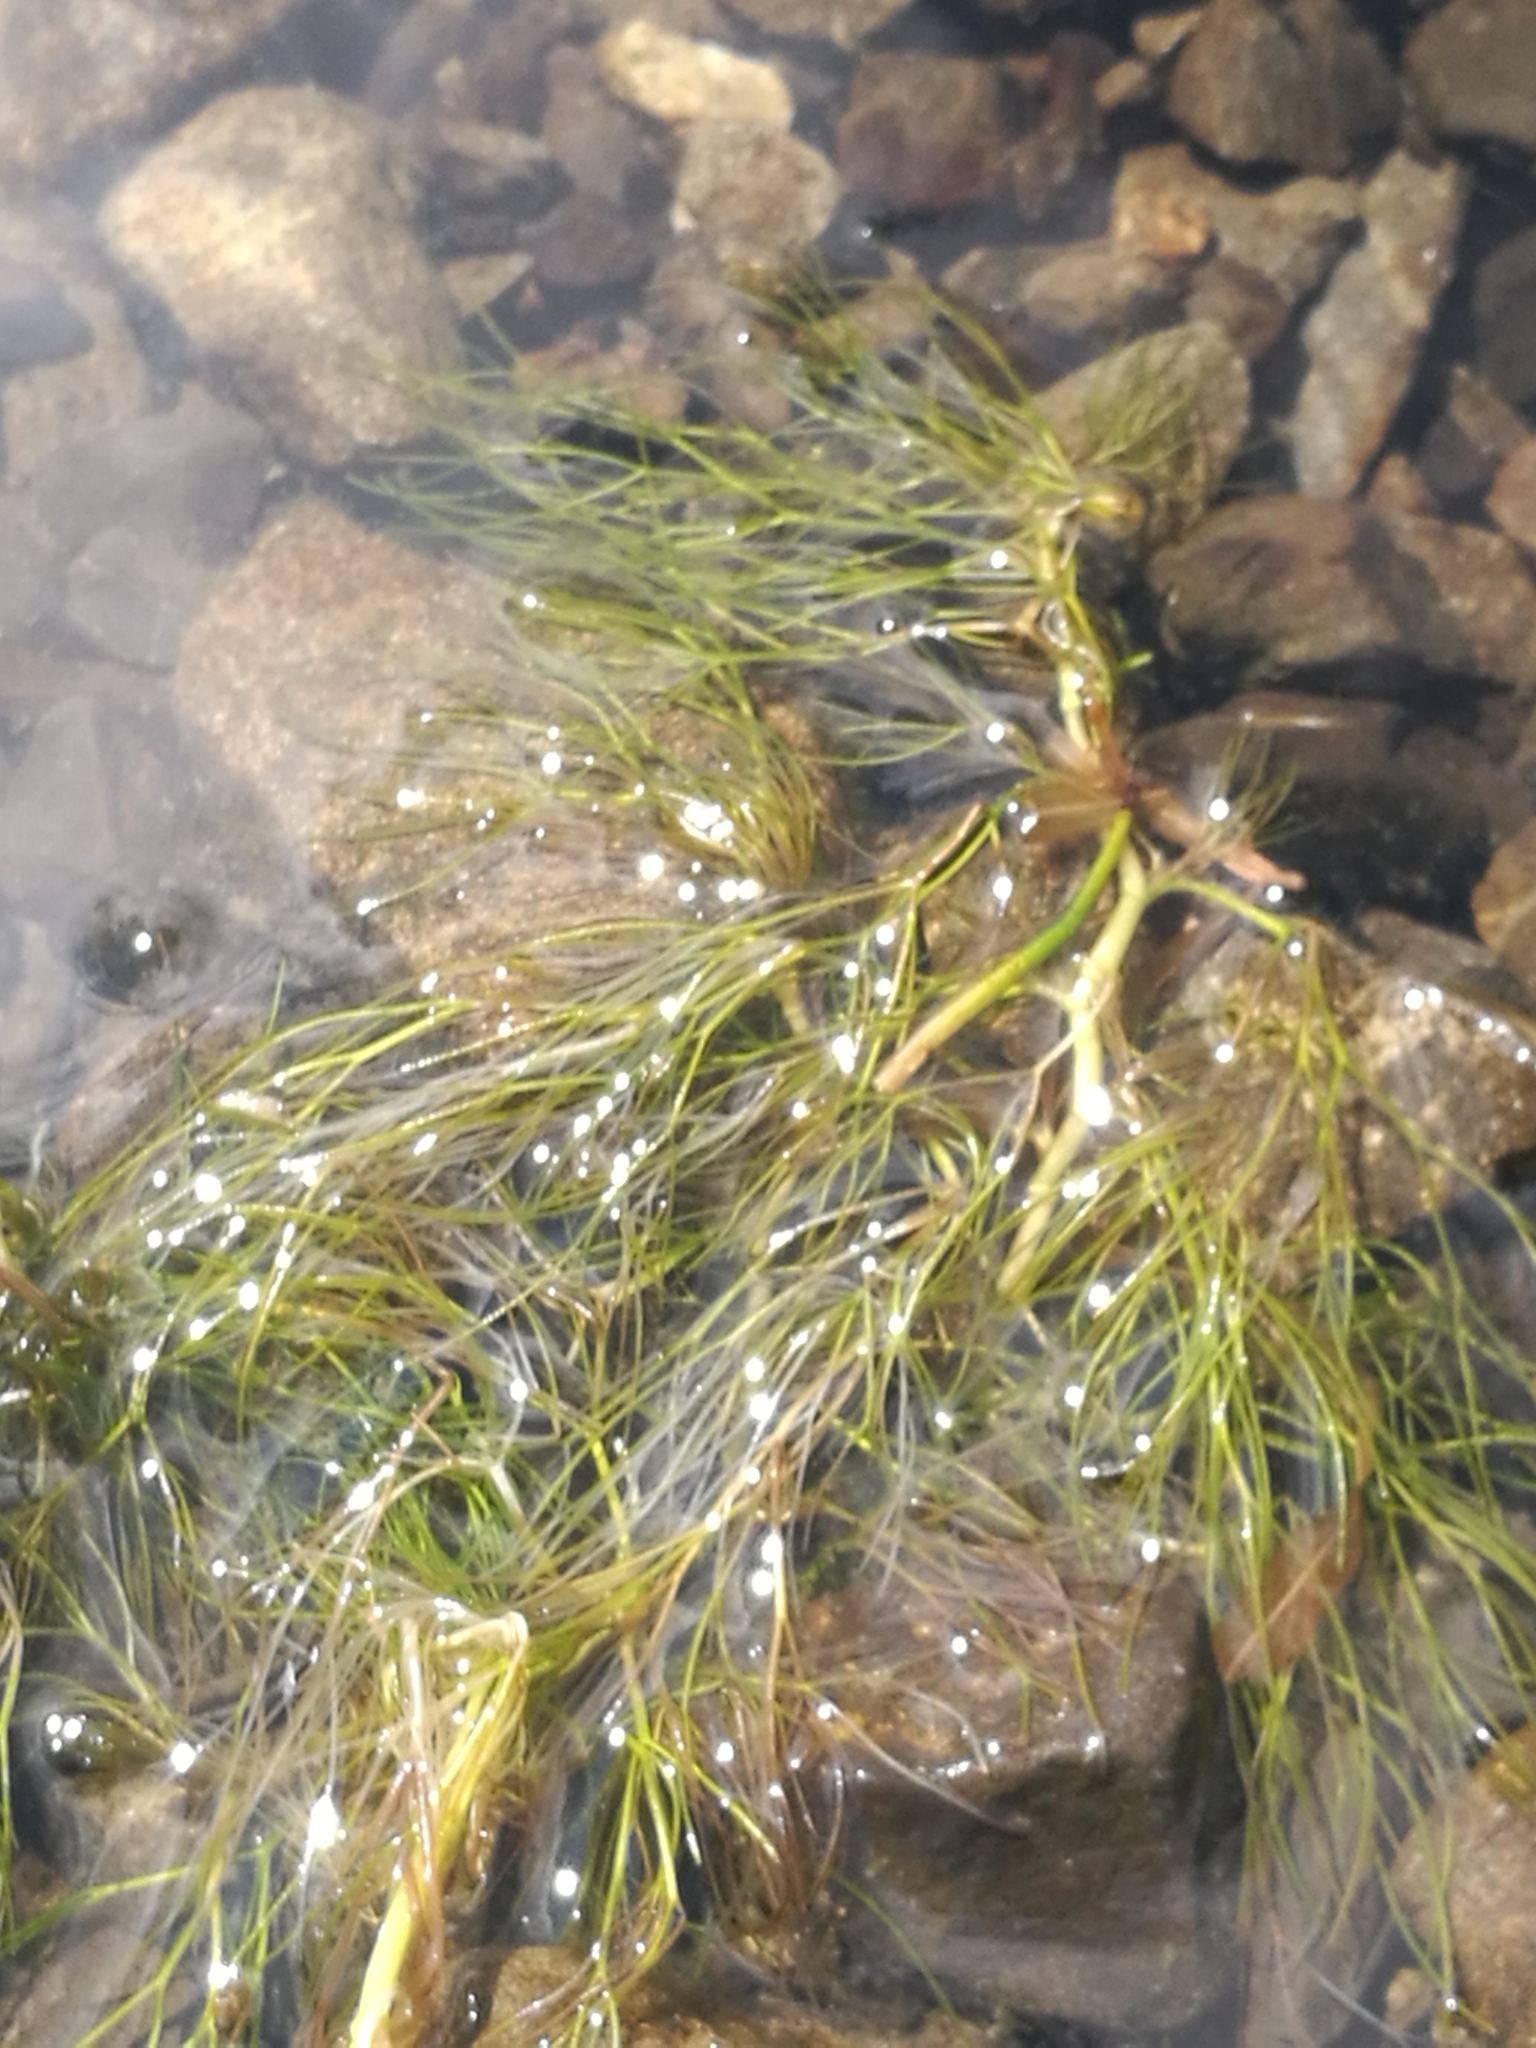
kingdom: Plantae
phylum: Tracheophyta
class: Magnoliopsida
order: Ranunculales
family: Ranunculaceae
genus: Ranunculus
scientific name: Ranunculus trichophyllus
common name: Thread-leaved water-crowfoot
